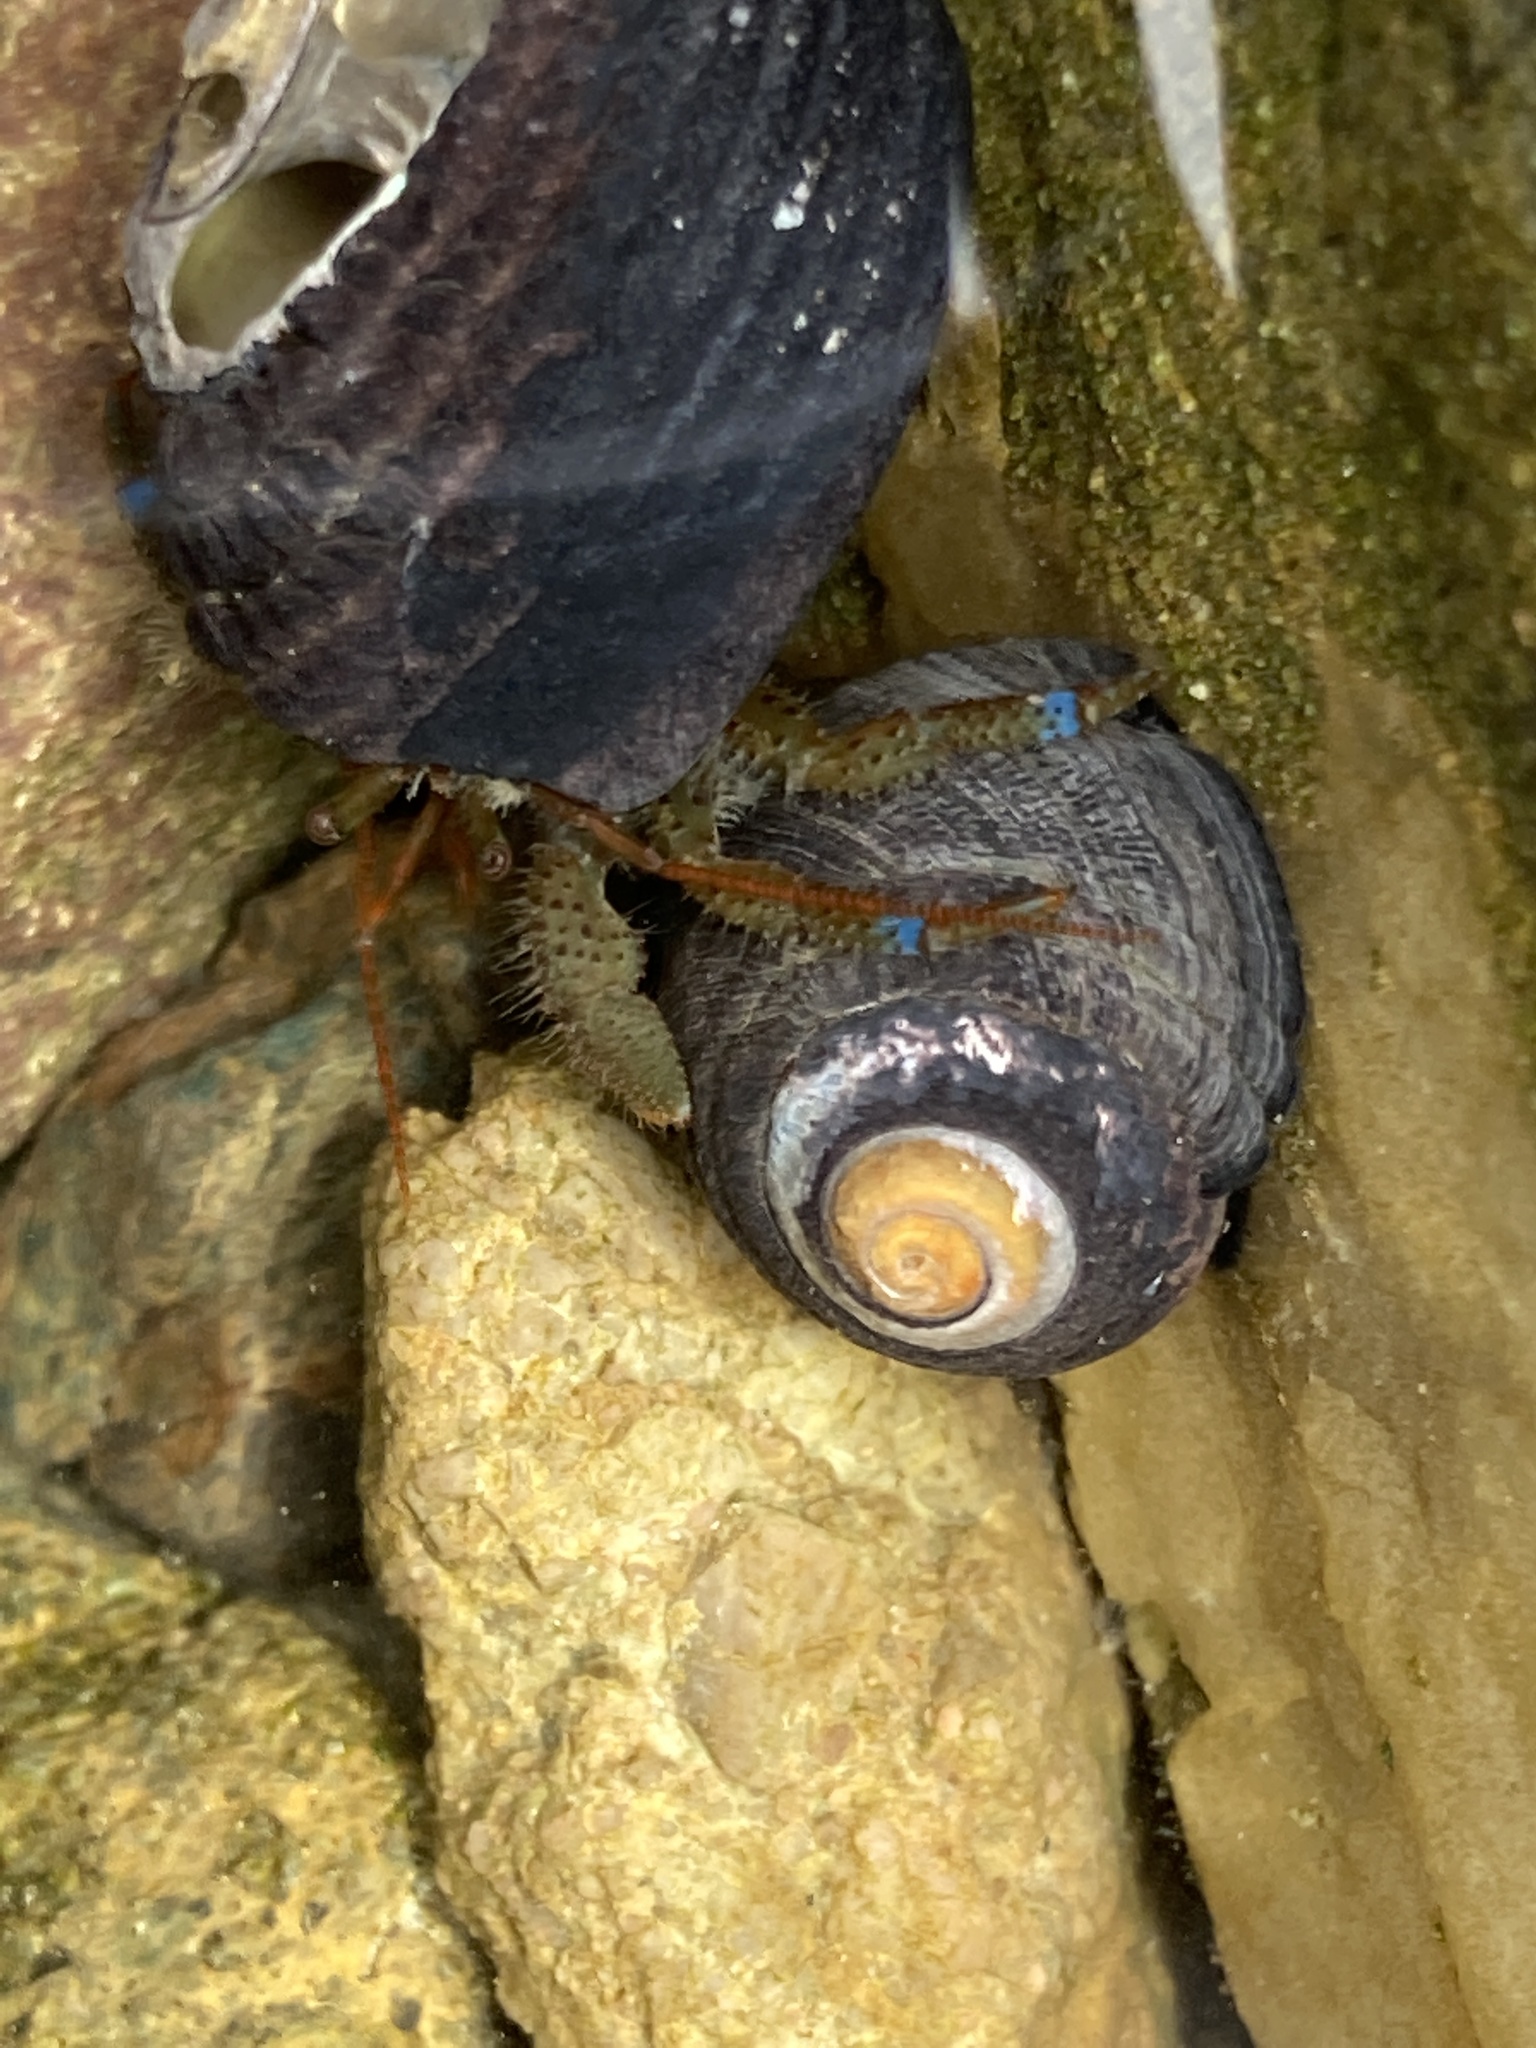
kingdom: Animalia
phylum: Arthropoda
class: Malacostraca
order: Decapoda
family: Paguridae
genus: Pagurus
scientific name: Pagurus samuelis
